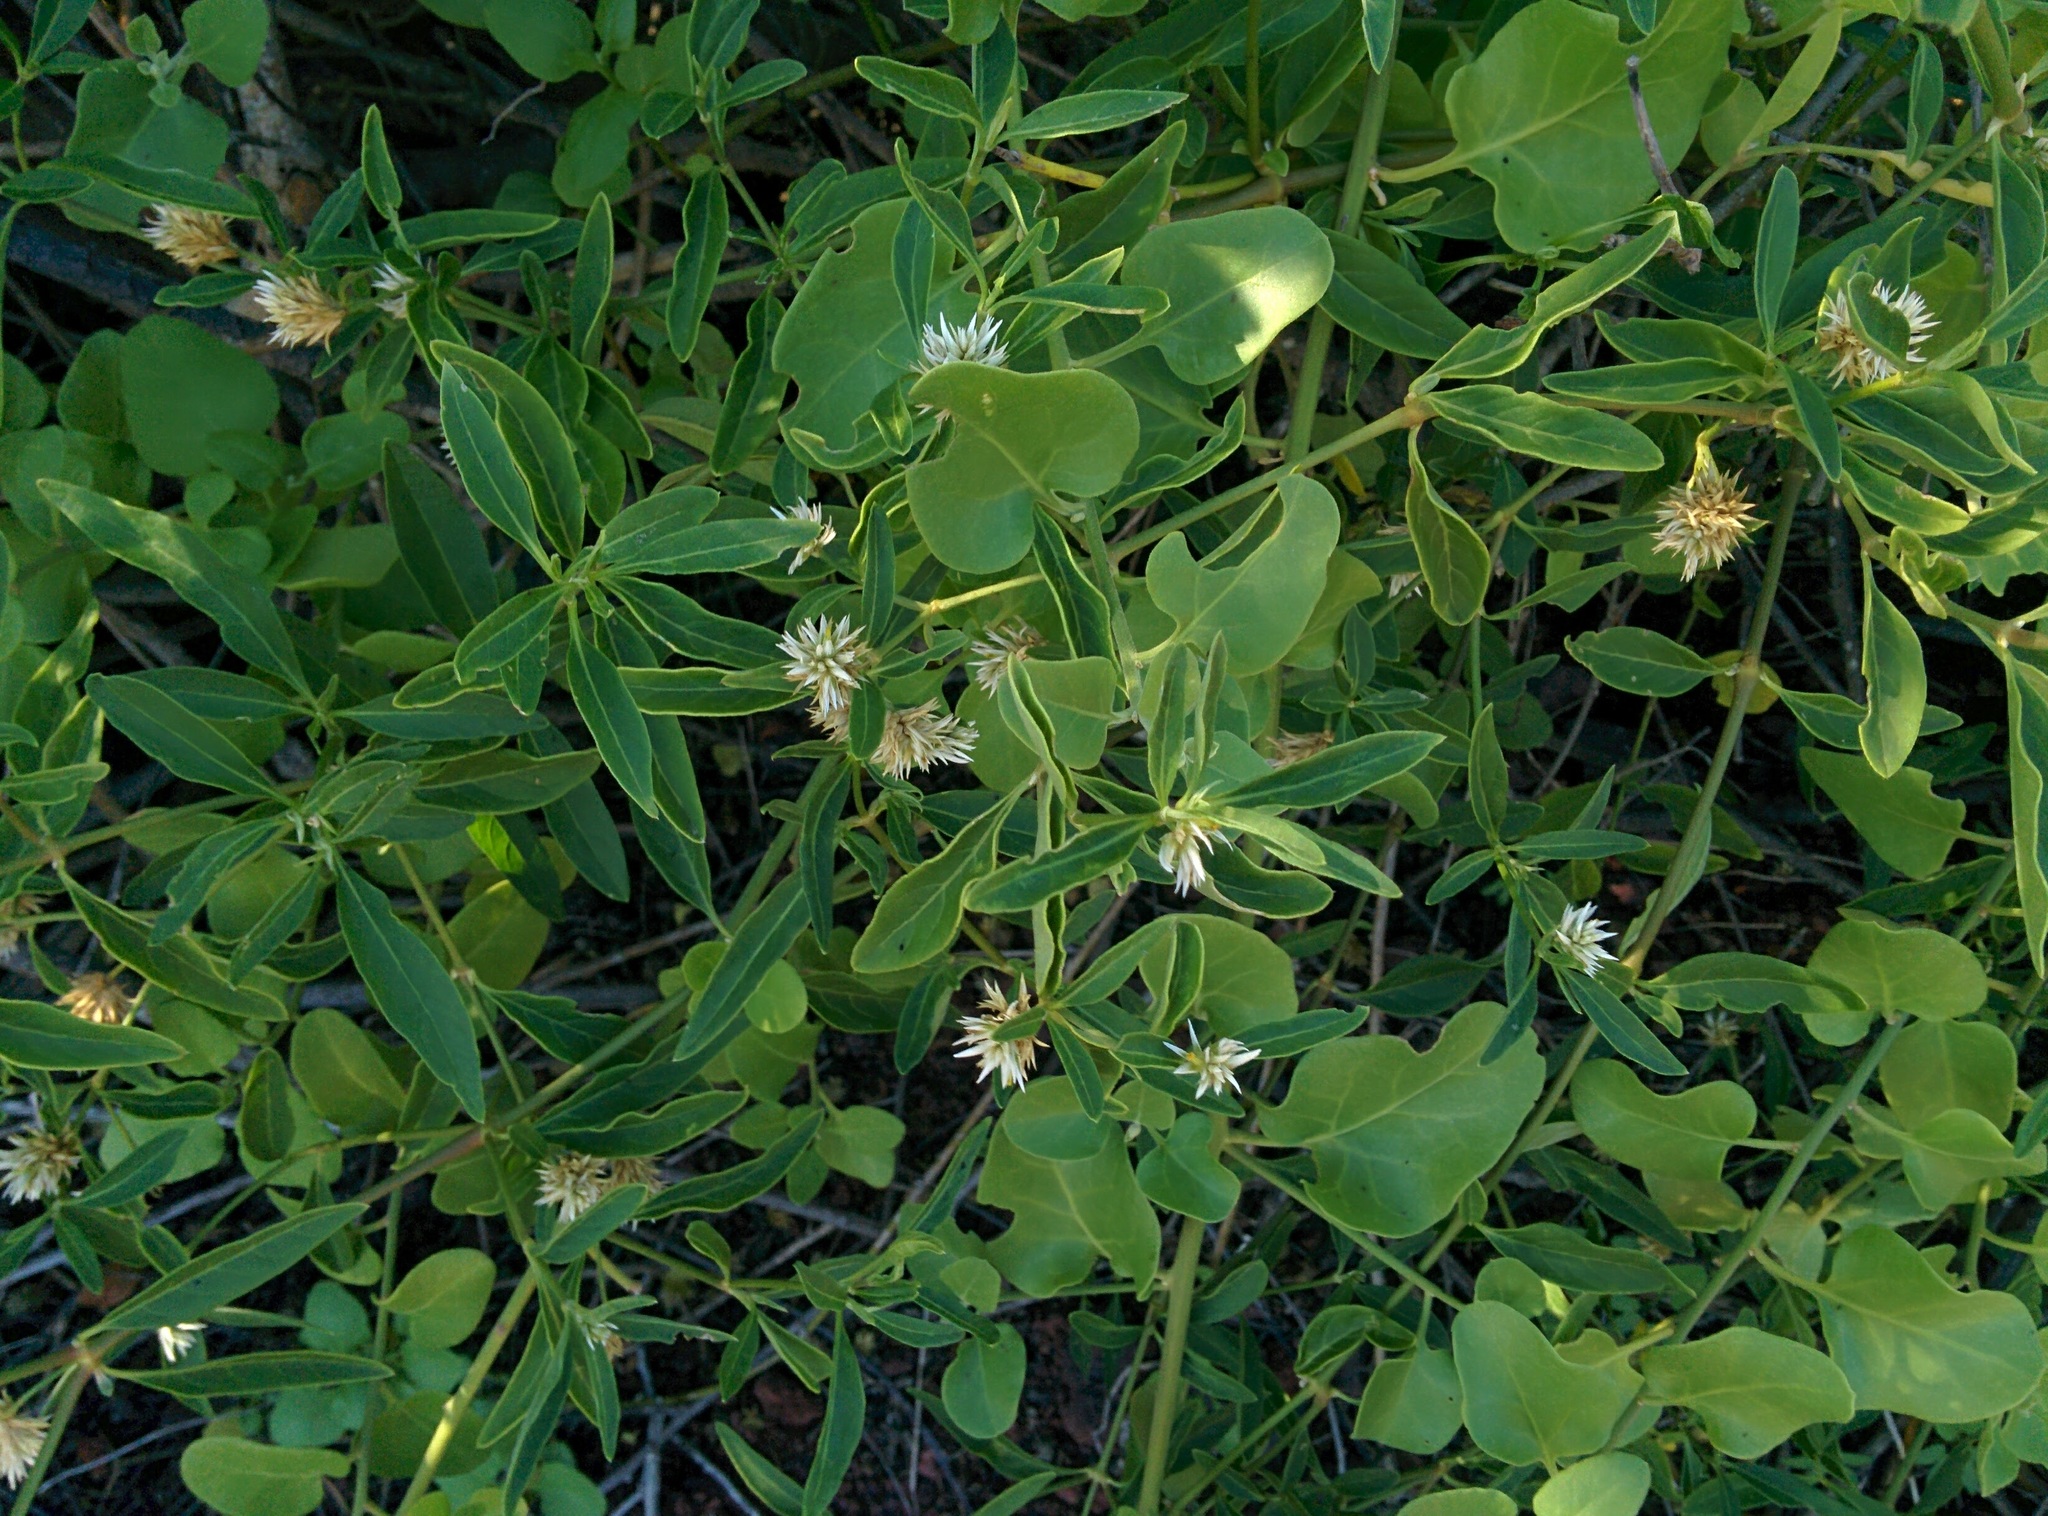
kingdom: Plantae
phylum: Tracheophyta
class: Magnoliopsida
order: Caryophyllales
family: Amaranthaceae
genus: Alternanthera
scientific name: Alternanthera echinocephala
